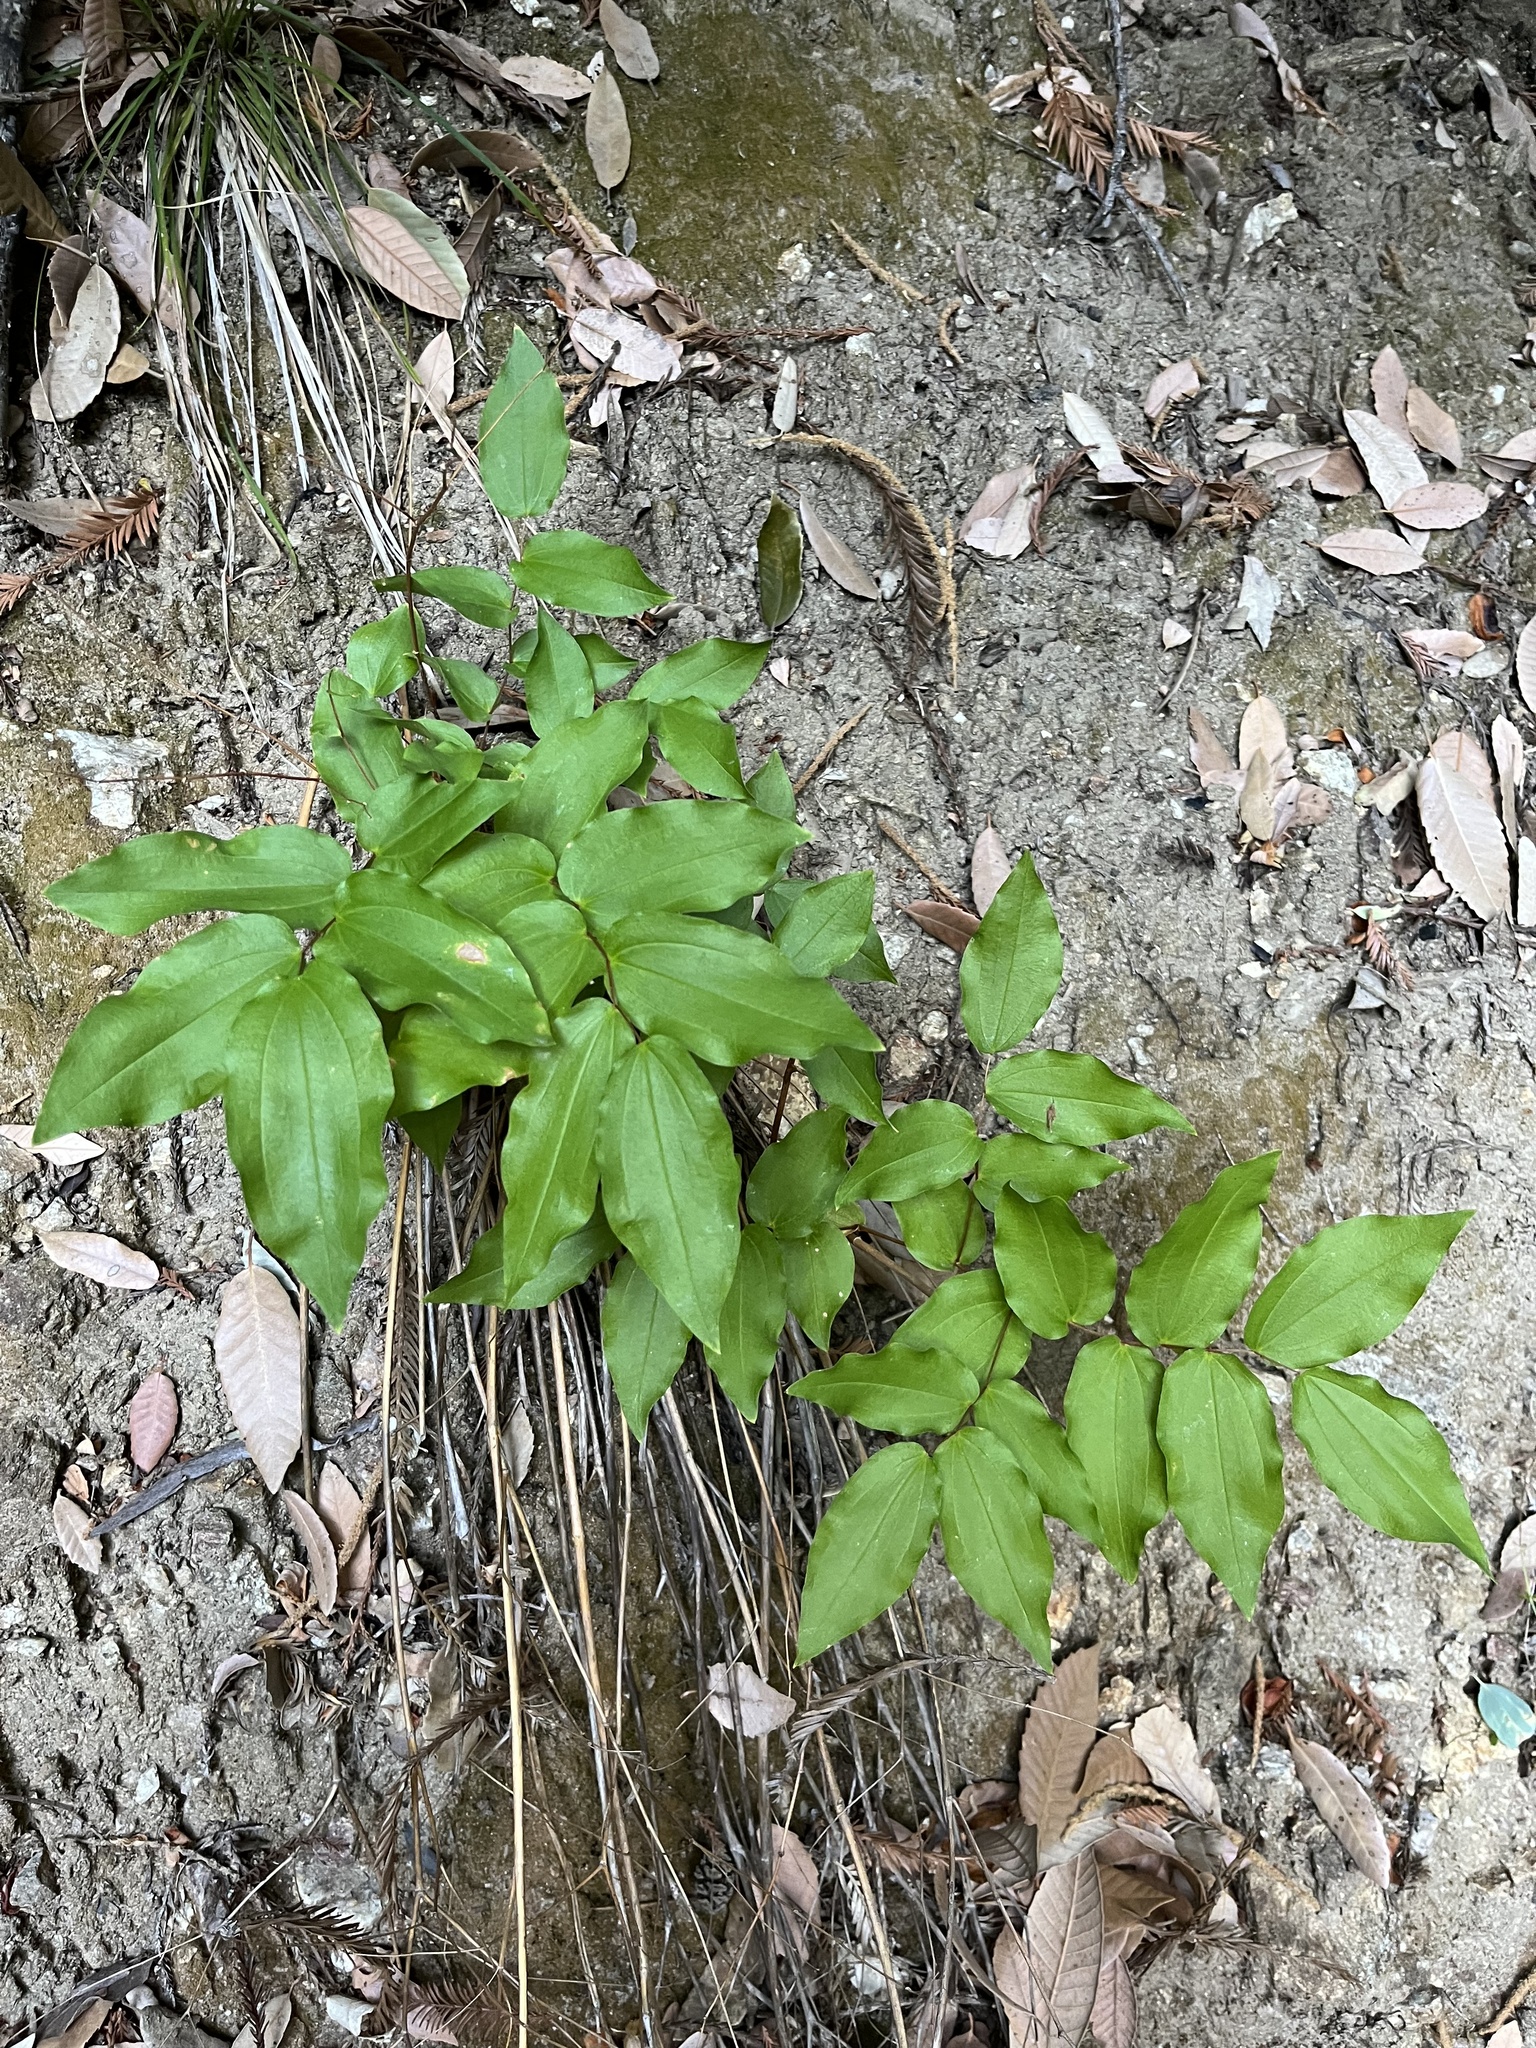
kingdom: Plantae
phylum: Tracheophyta
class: Liliopsida
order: Liliales
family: Liliaceae
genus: Prosartes
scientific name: Prosartes hookeri
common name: Fairy-bells
